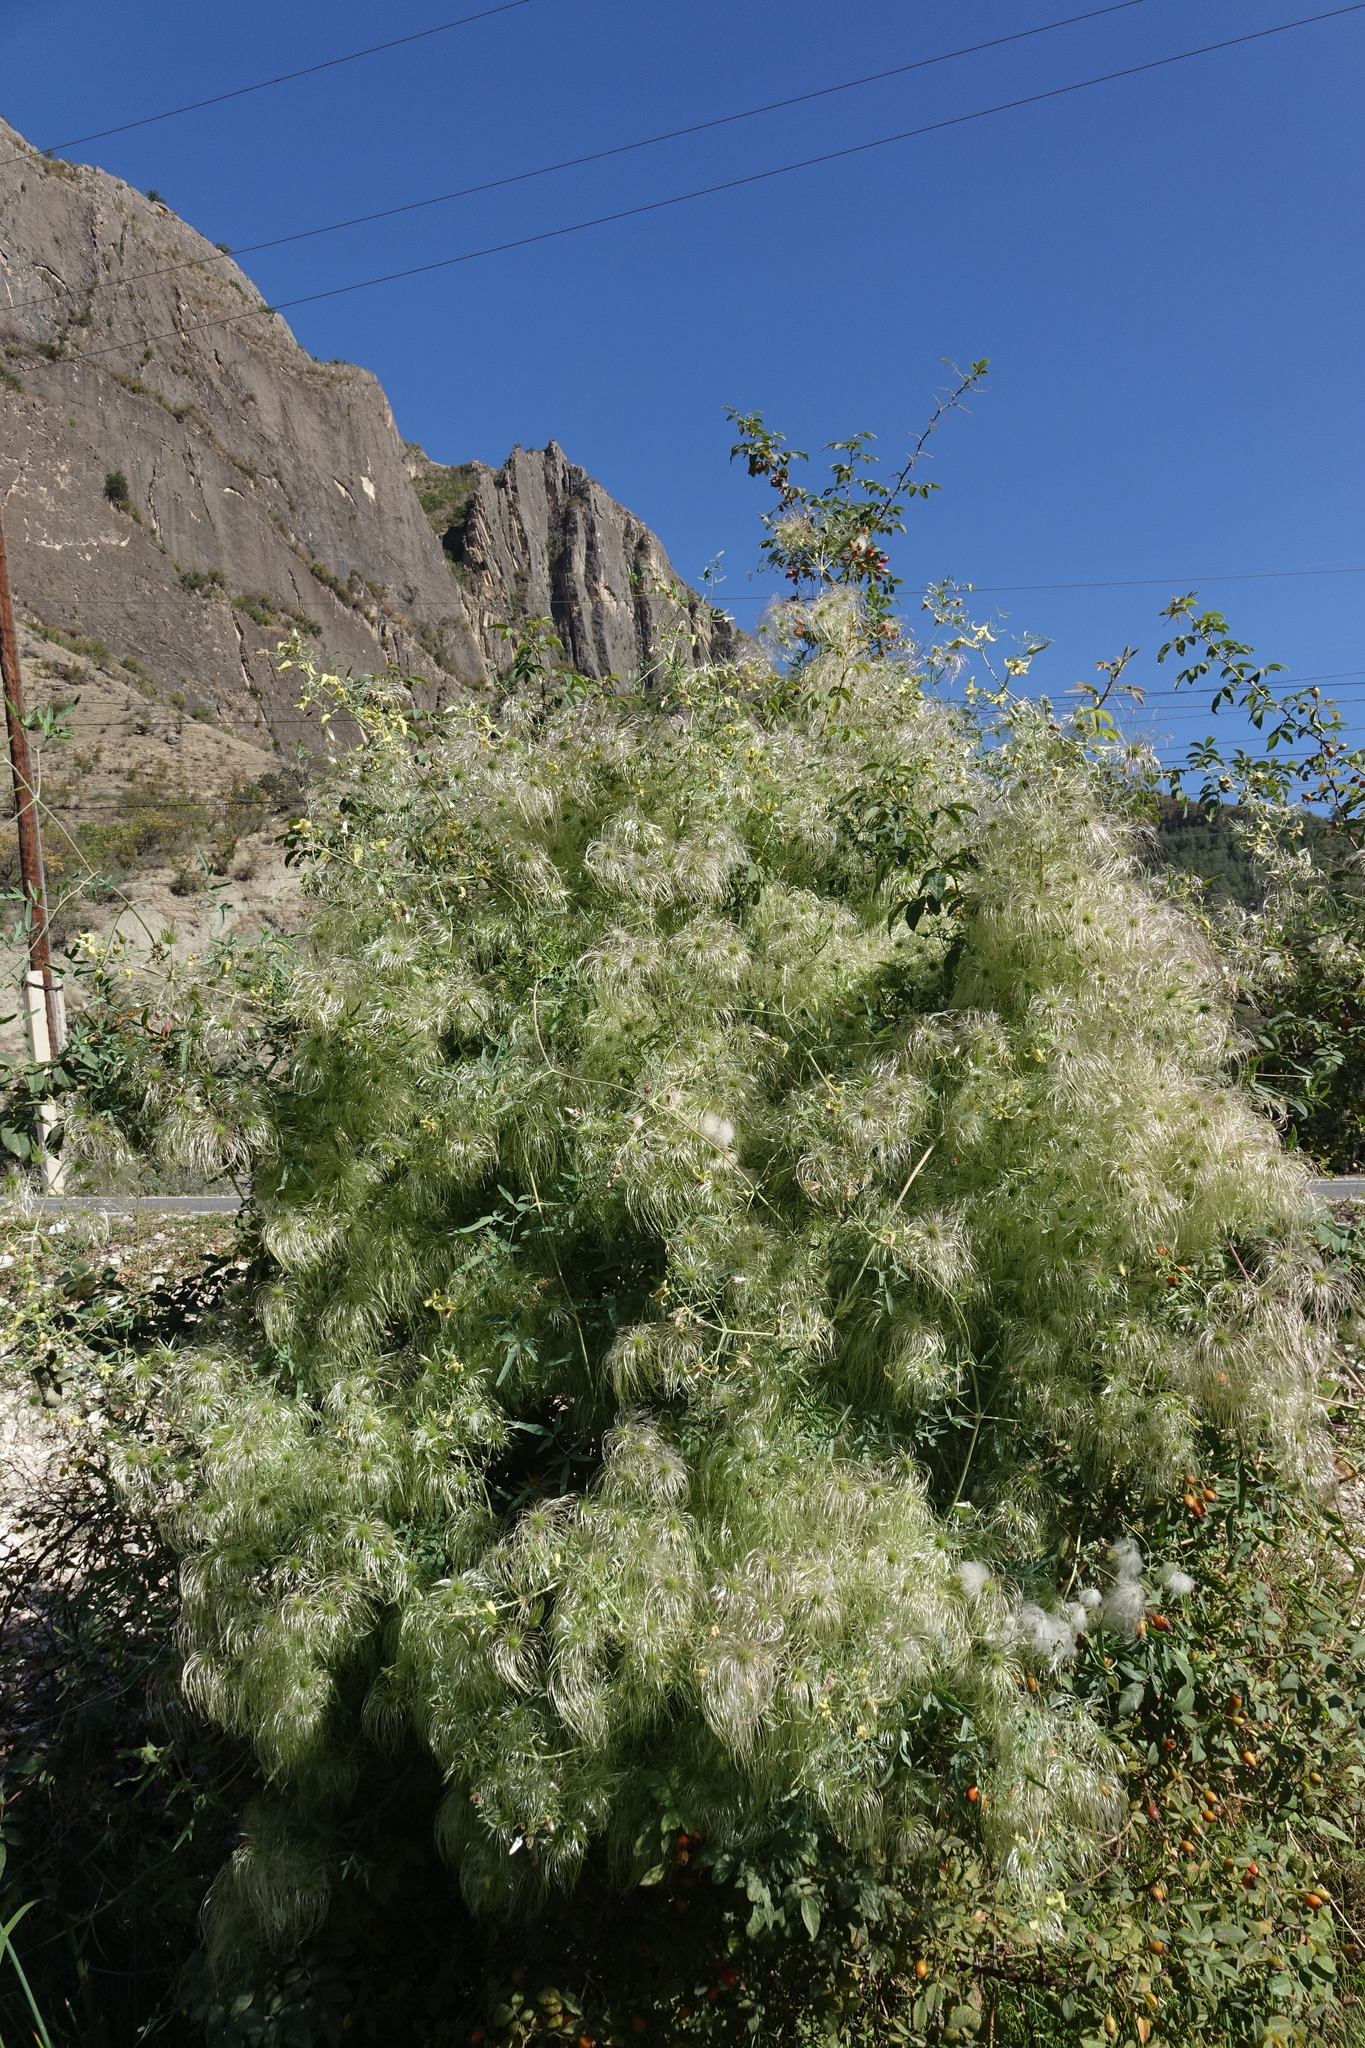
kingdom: Plantae
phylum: Tracheophyta
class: Magnoliopsida
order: Ranunculales
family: Ranunculaceae
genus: Clematis
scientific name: Clematis orientalis
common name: Oriental virgin's-bower
